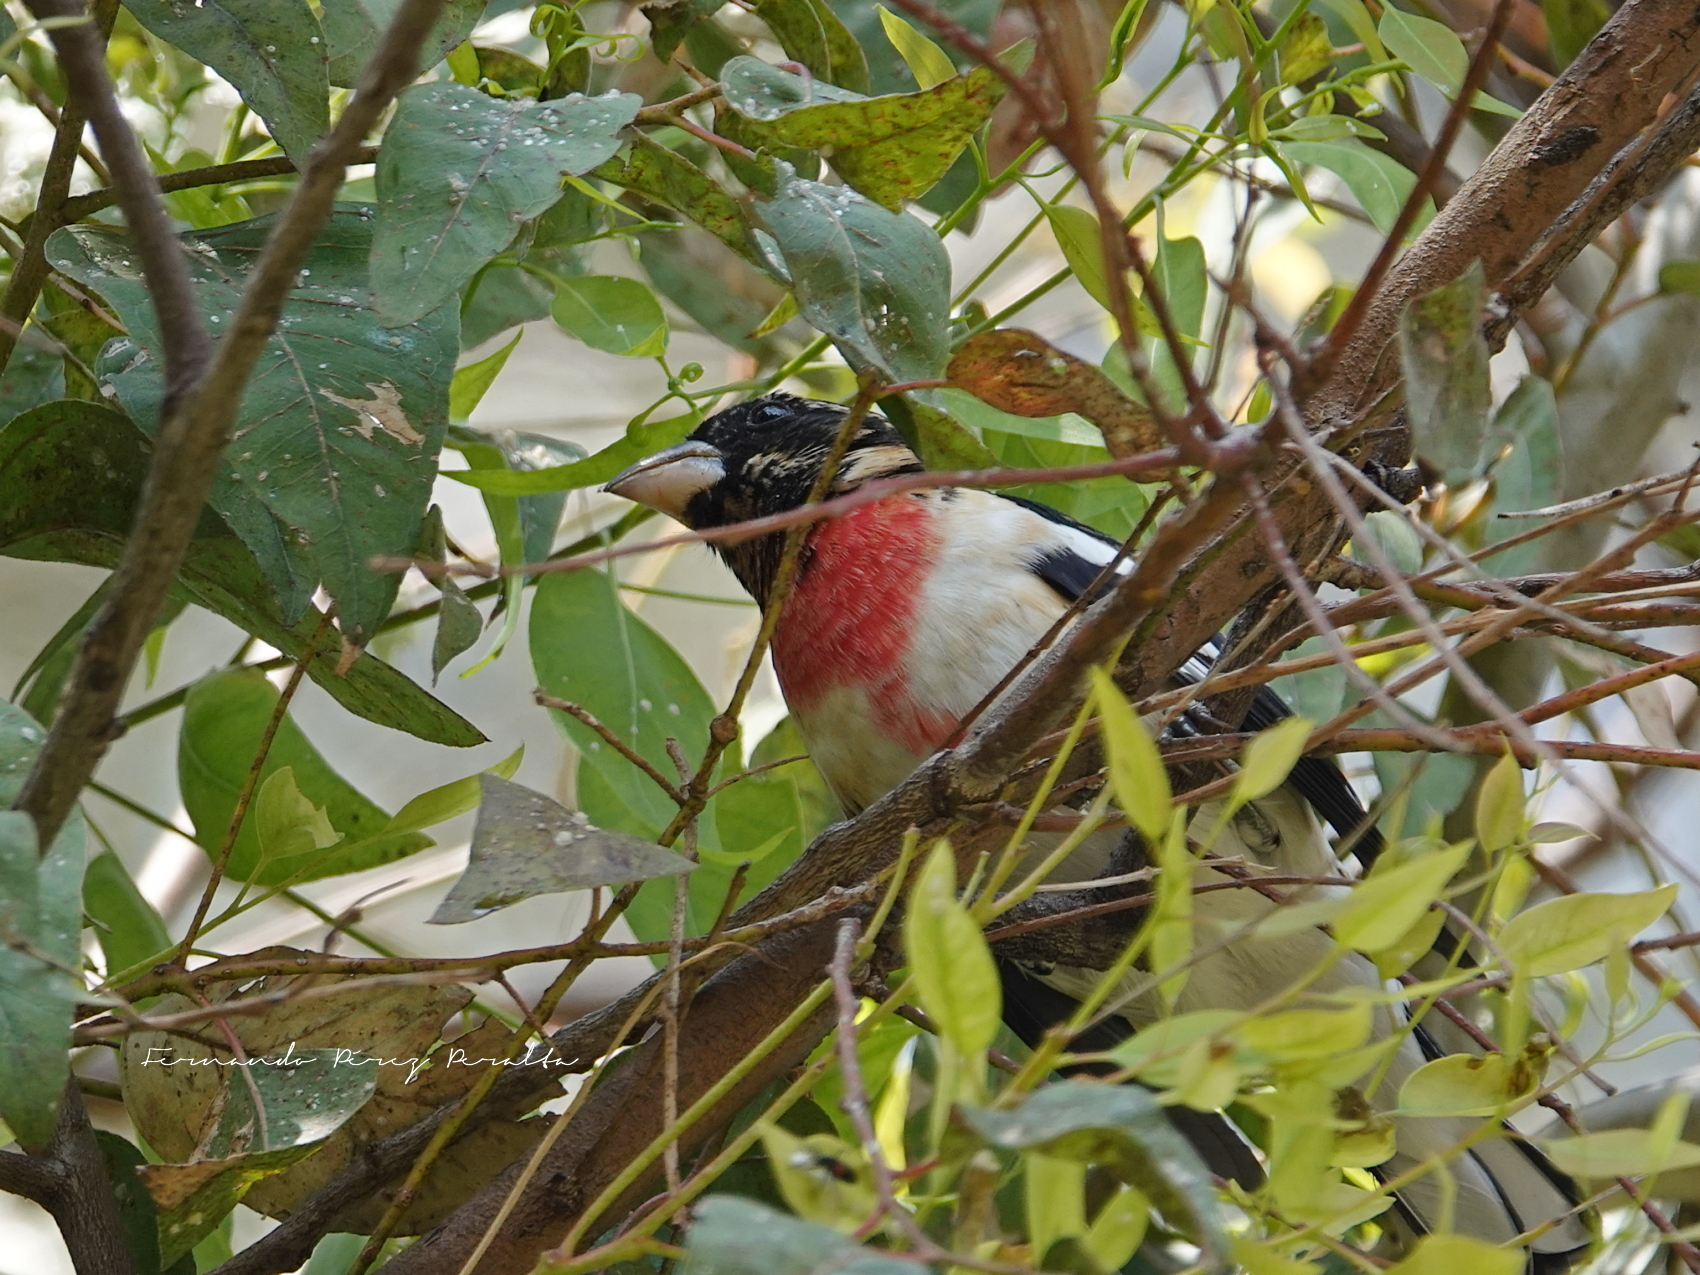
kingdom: Animalia
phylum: Chordata
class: Aves
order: Passeriformes
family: Cardinalidae
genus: Pheucticus
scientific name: Pheucticus ludovicianus
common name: Rose-breasted grosbeak
